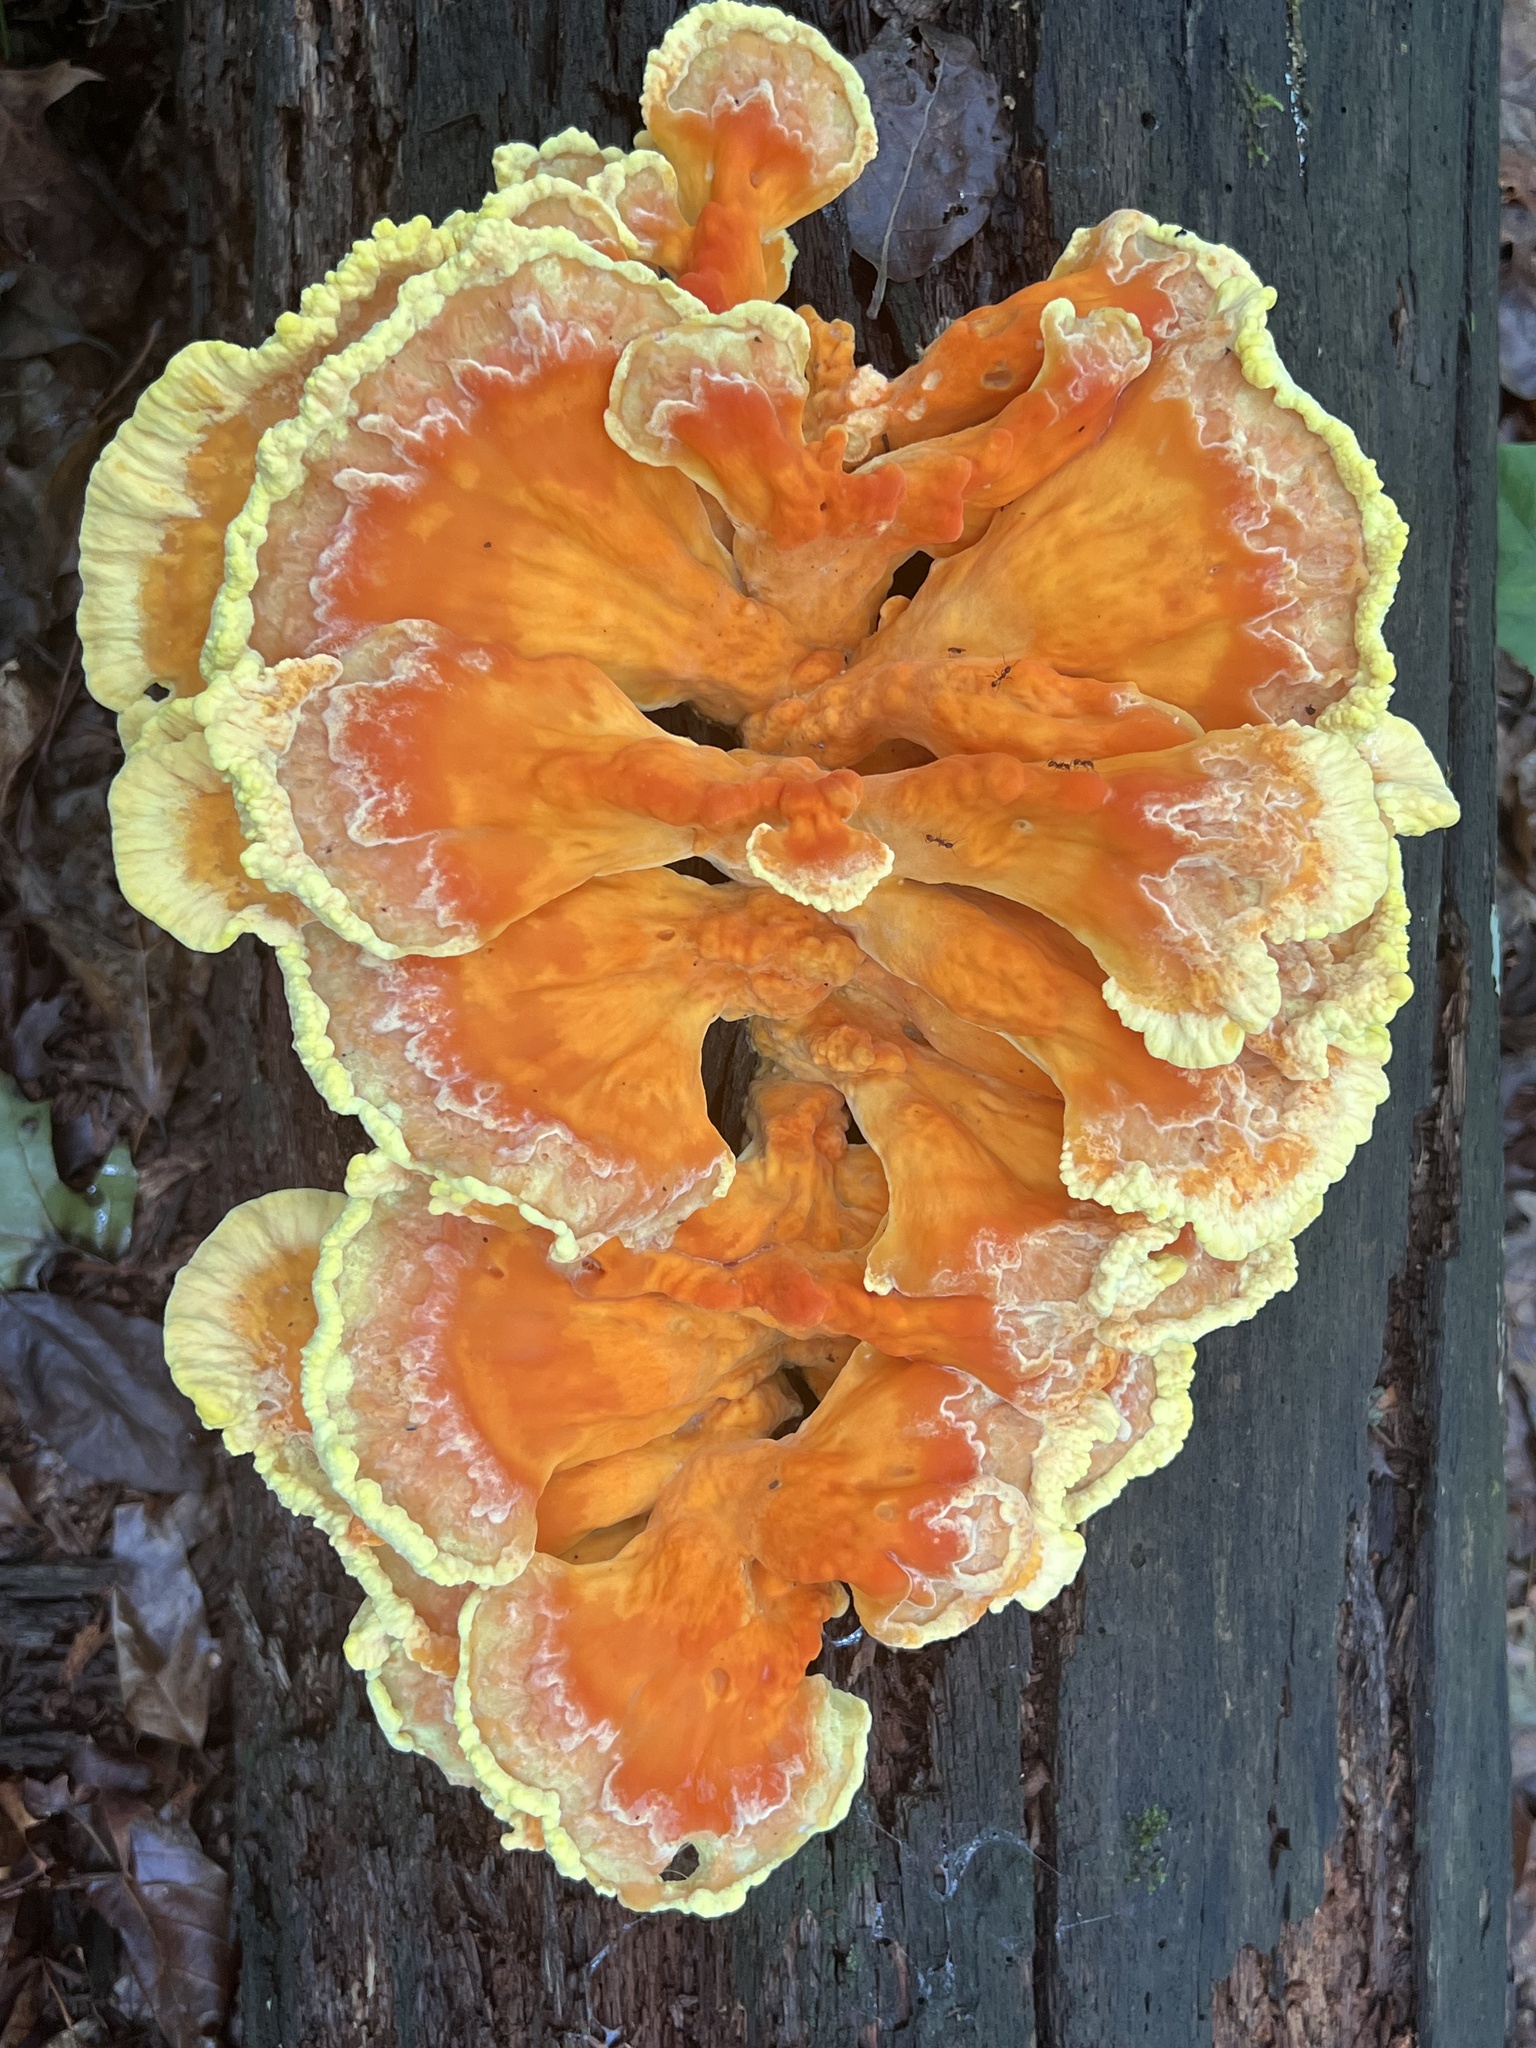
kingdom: Fungi
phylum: Basidiomycota
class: Agaricomycetes
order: Polyporales
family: Laetiporaceae
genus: Laetiporus
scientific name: Laetiporus sulphureus
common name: Chicken of the woods
